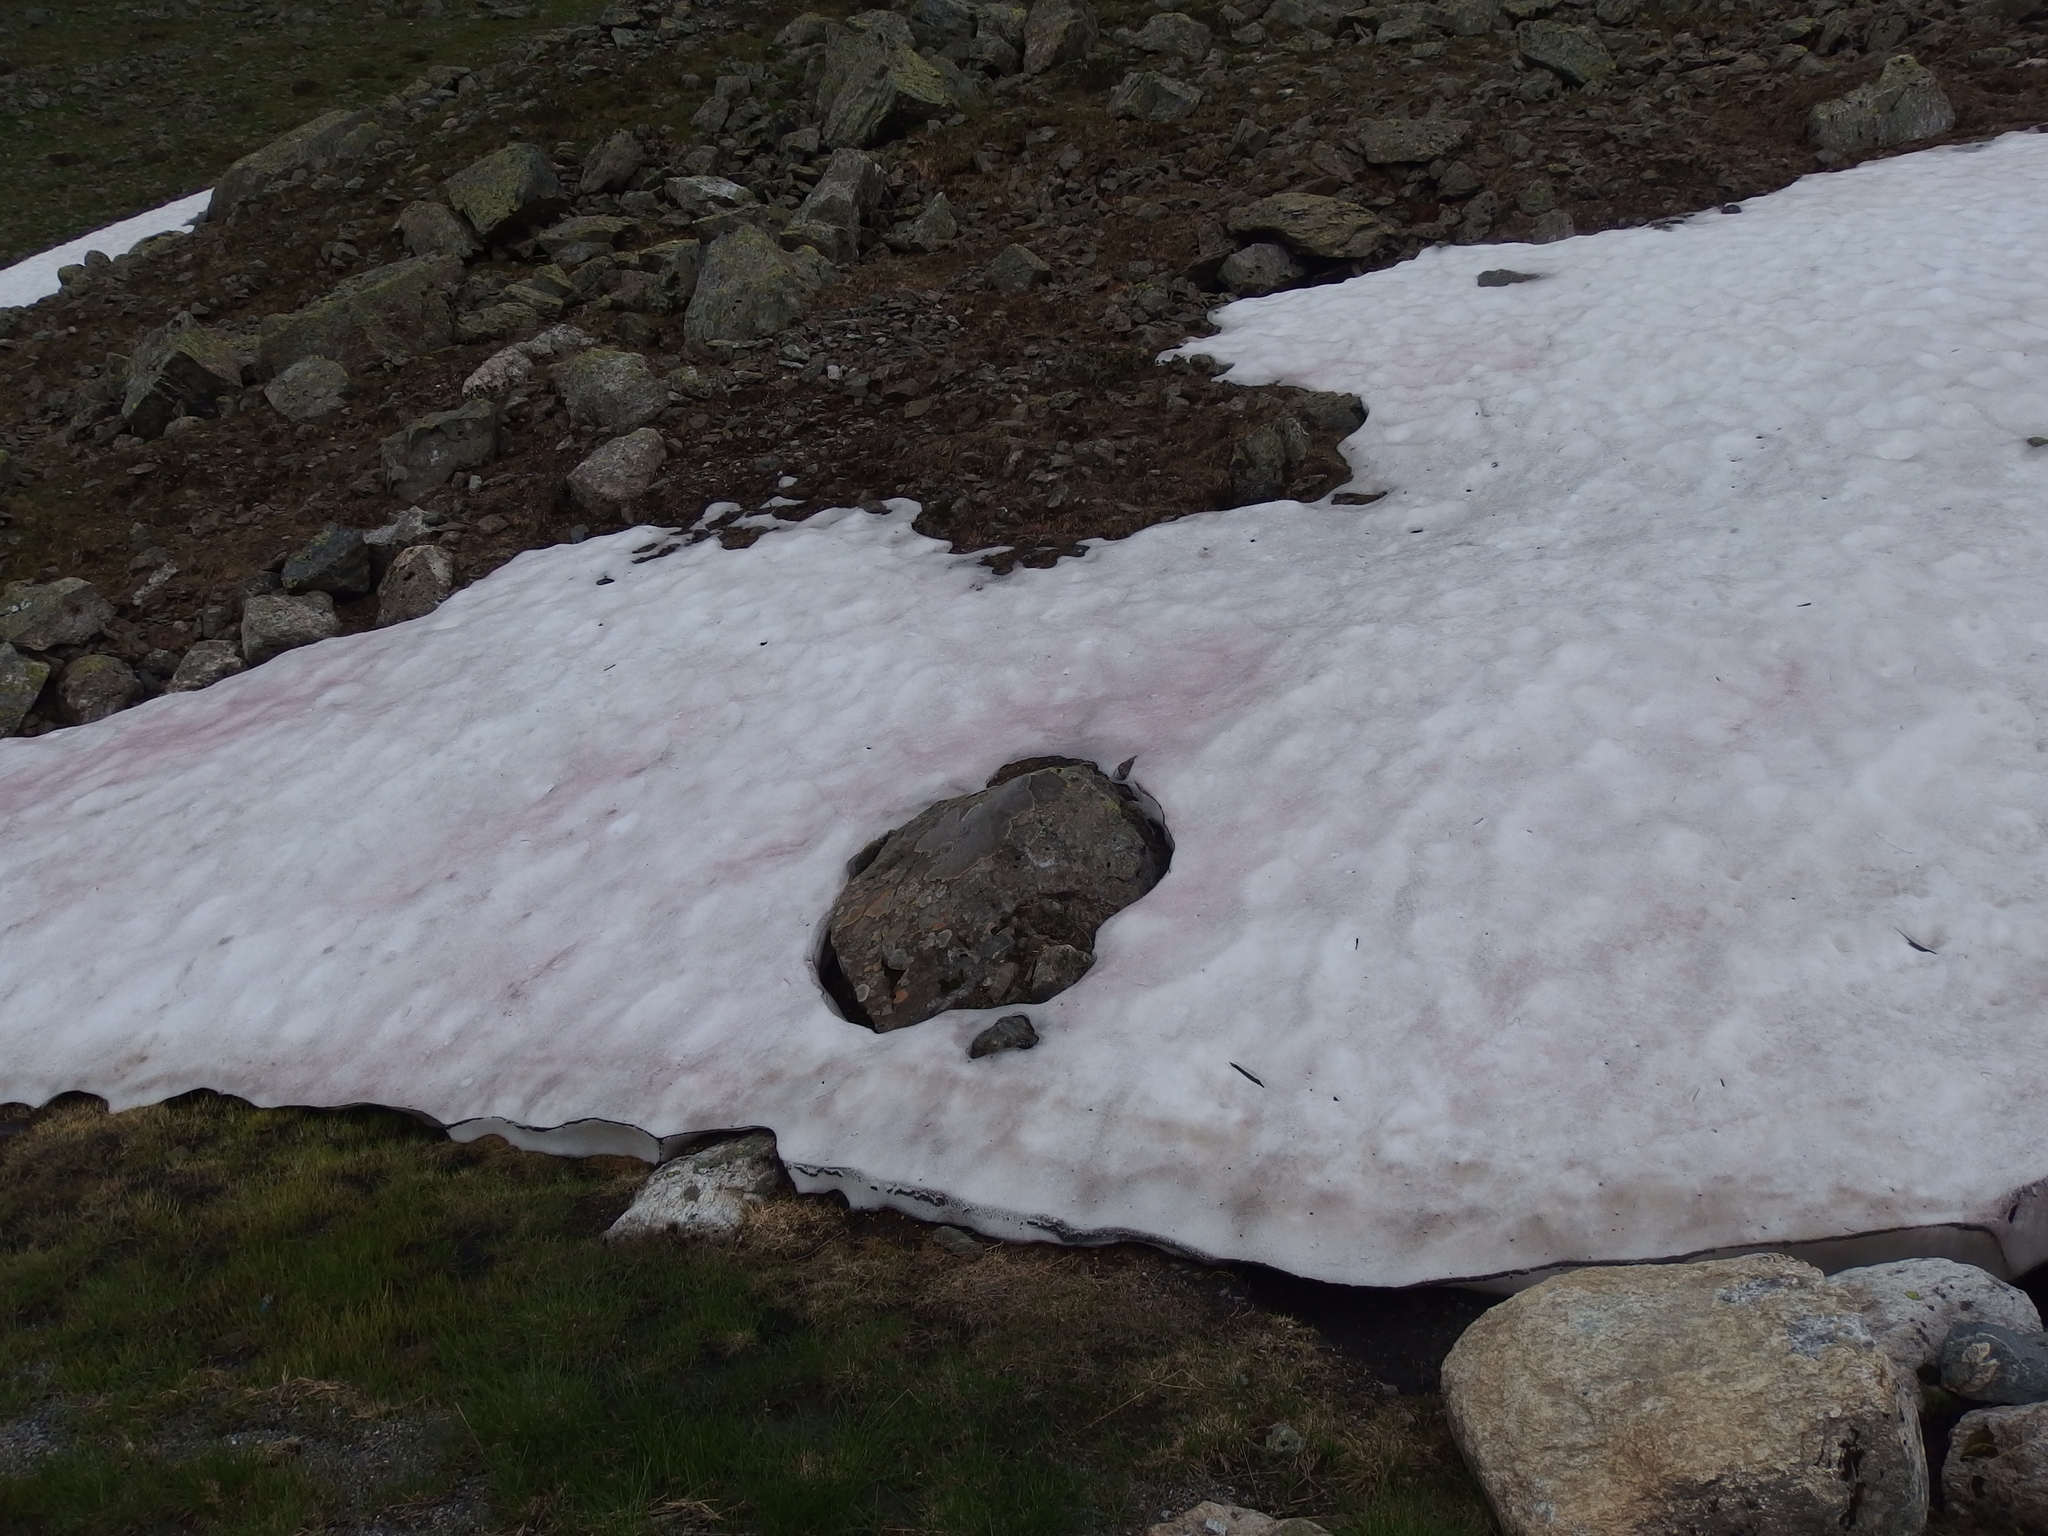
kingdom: Plantae
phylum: Chlorophyta
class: Chlorophyceae
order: Volvocales
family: Chlamydomonadaceae
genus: Chlamydomonas
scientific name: Chlamydomonas nivalis
